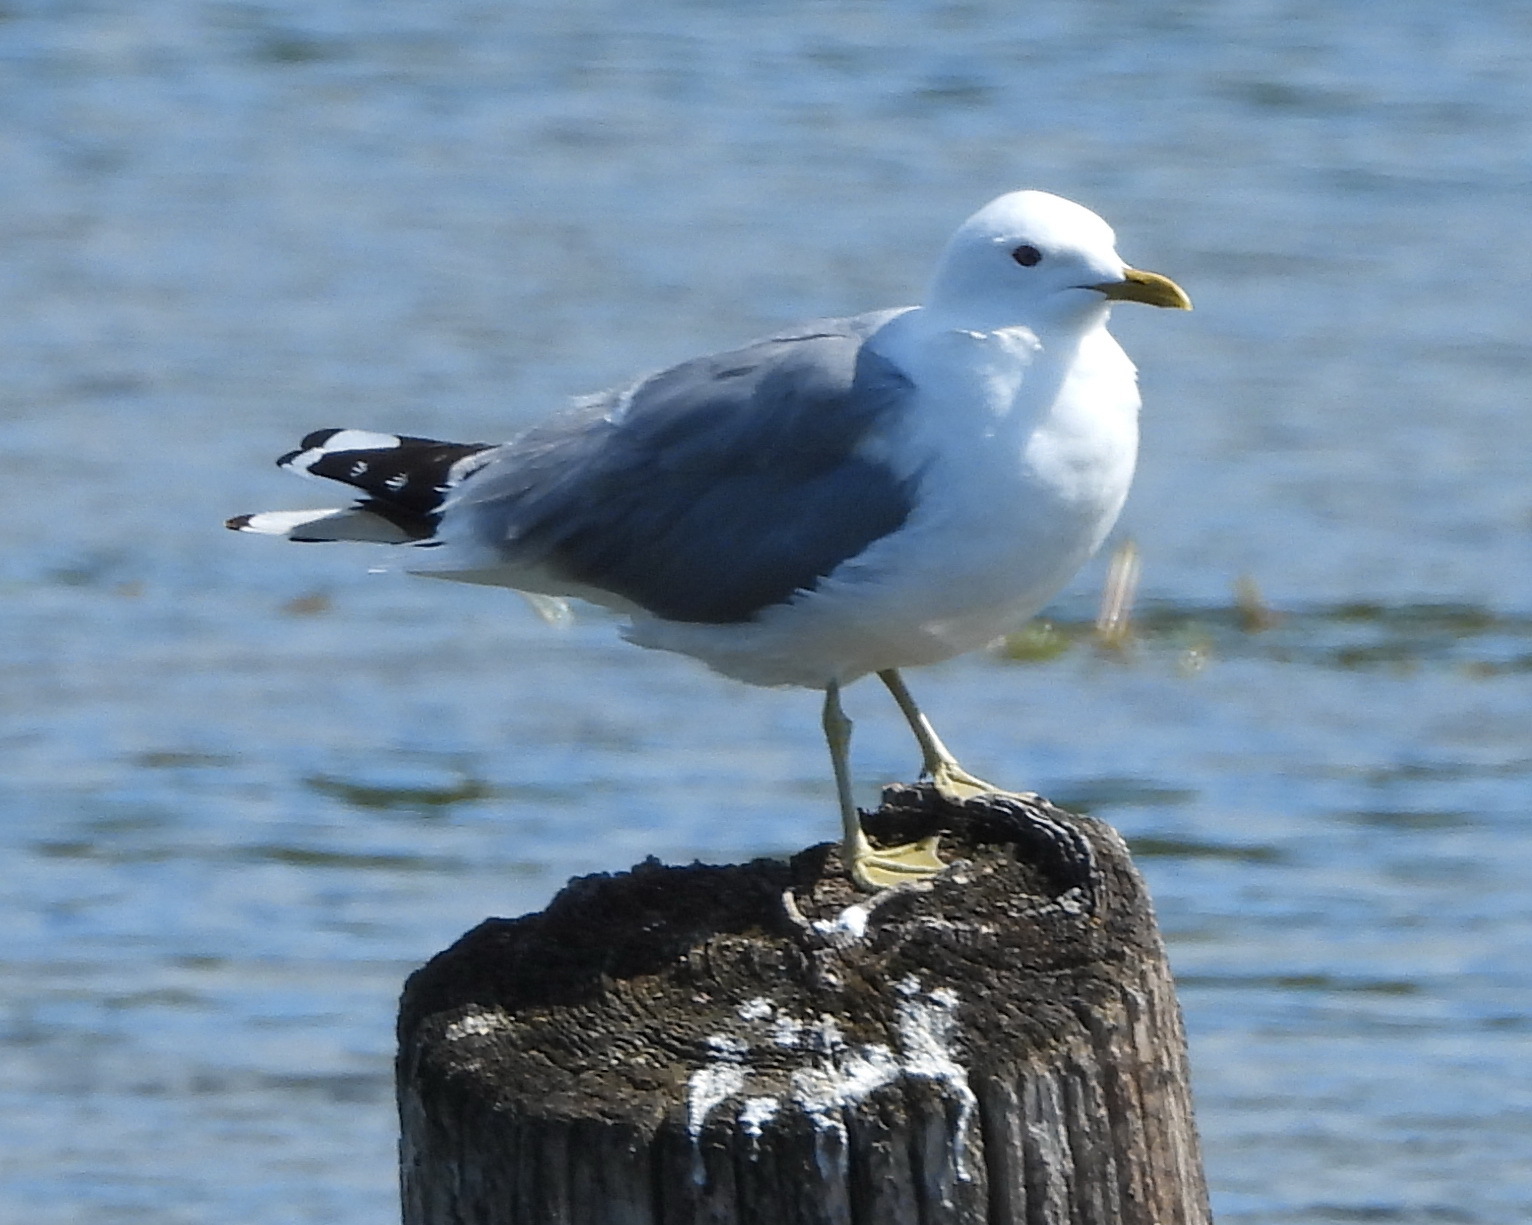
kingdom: Animalia
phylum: Chordata
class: Aves
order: Charadriiformes
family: Laridae
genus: Larus
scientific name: Larus canus
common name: Mew gull
